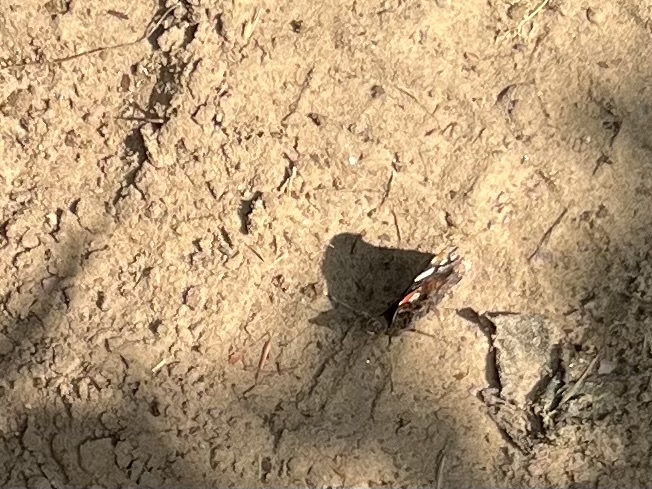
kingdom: Animalia
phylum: Arthropoda
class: Insecta
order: Lepidoptera
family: Nymphalidae
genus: Vanessa
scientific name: Vanessa atalanta
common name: Red admiral
